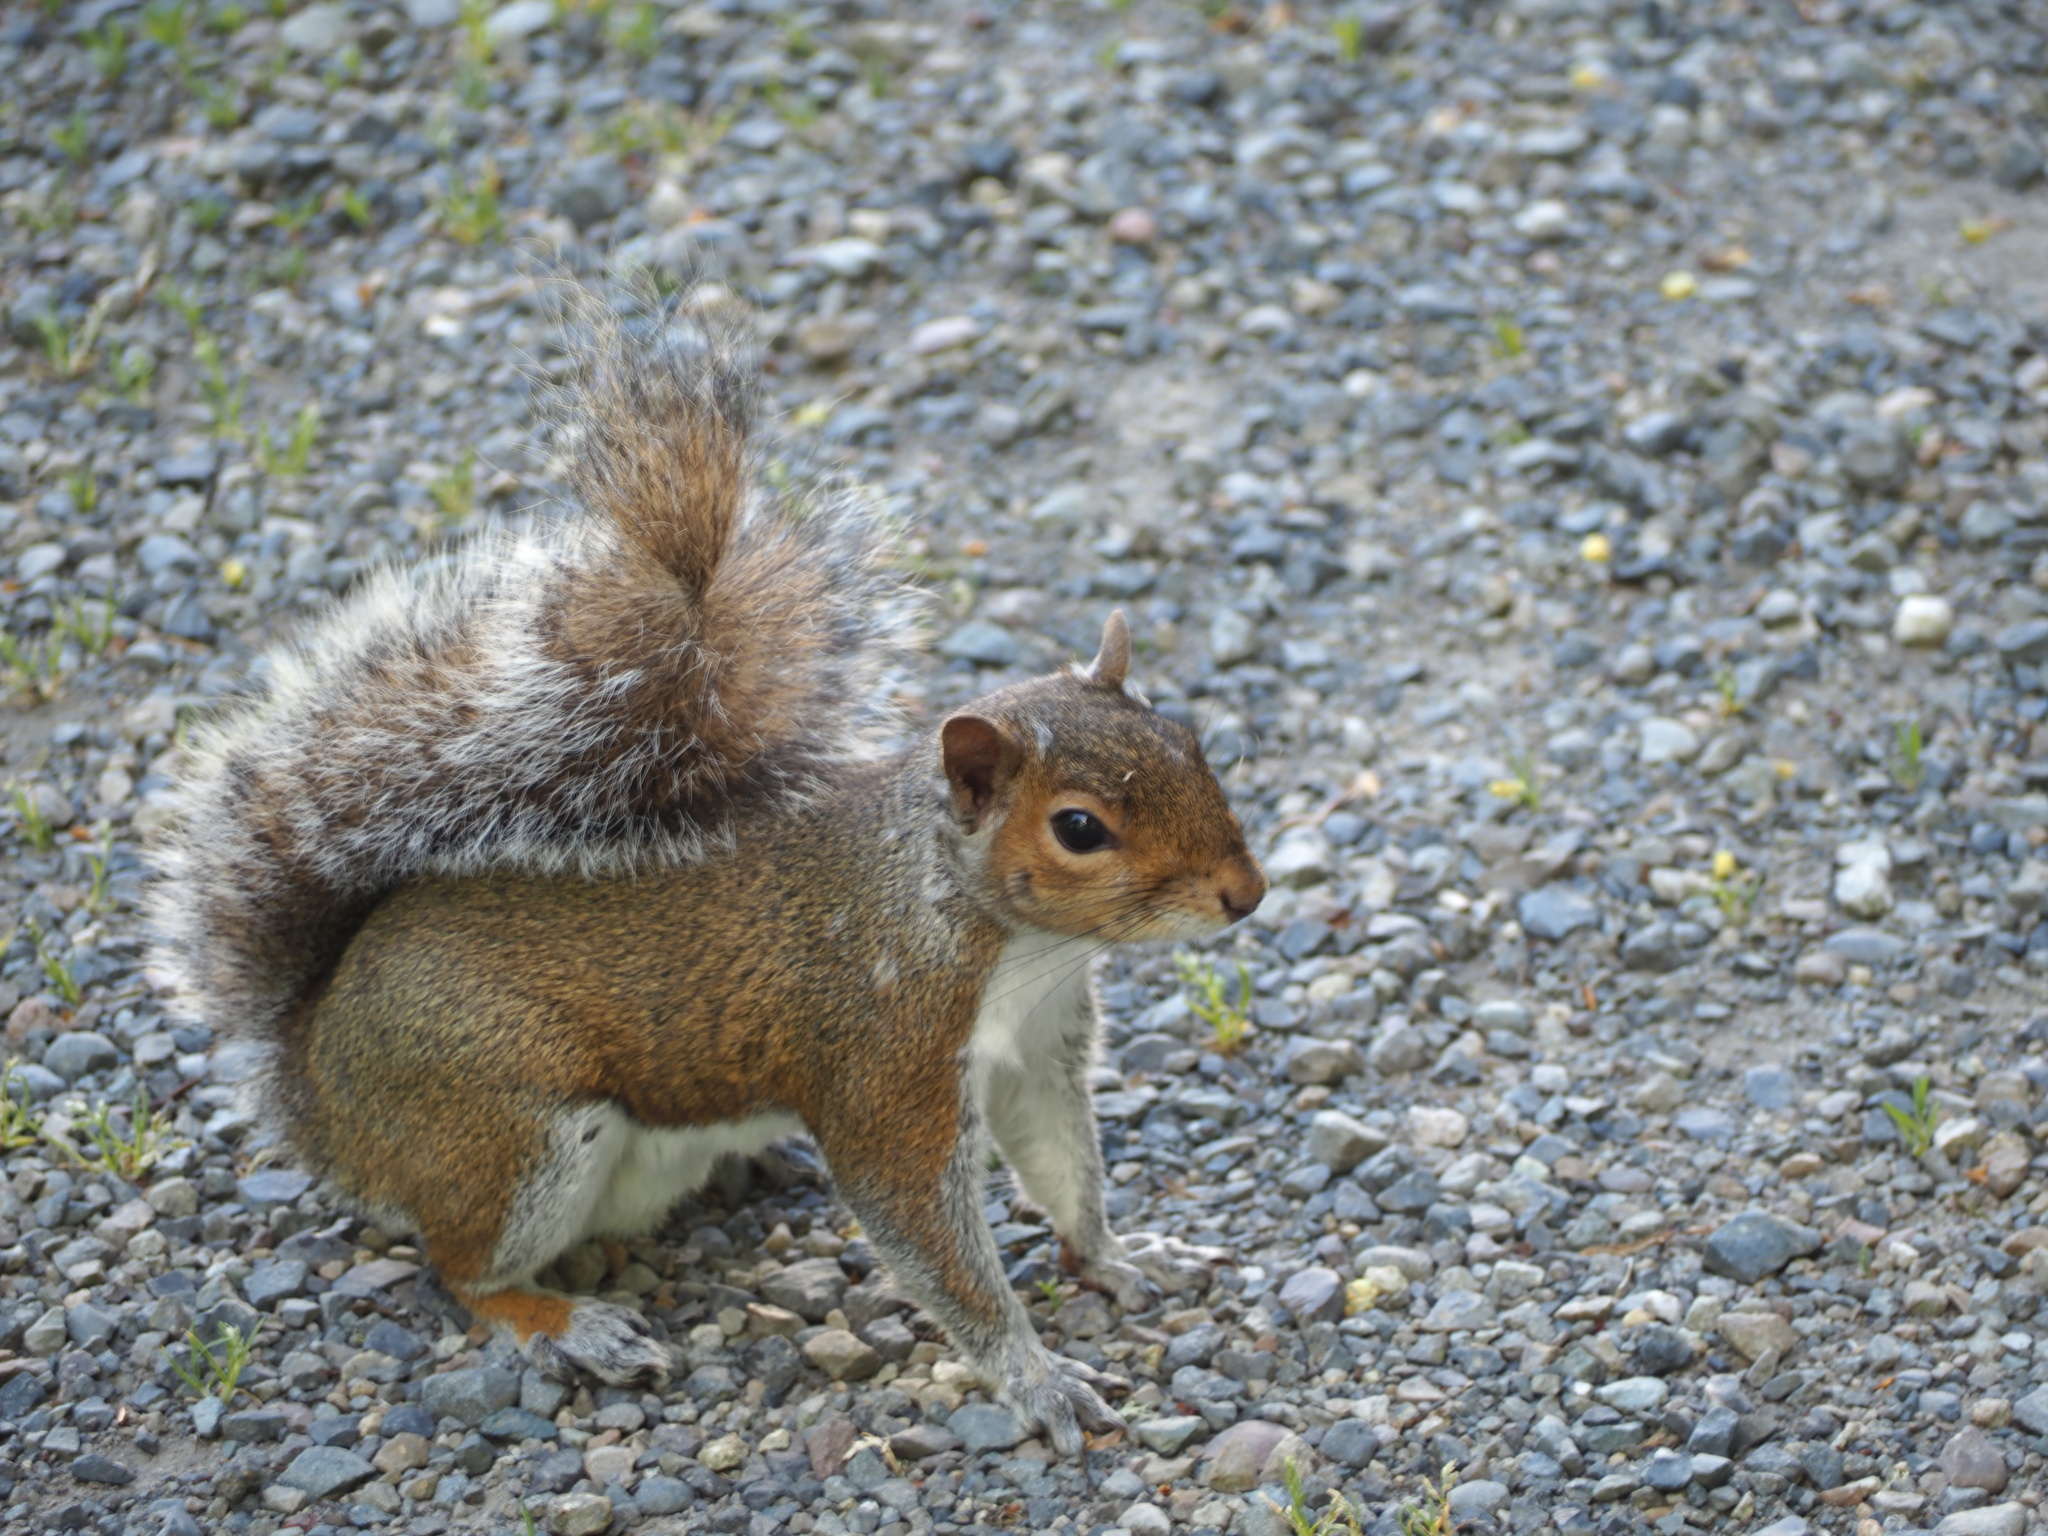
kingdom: Animalia
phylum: Chordata
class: Mammalia
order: Rodentia
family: Sciuridae
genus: Sciurus
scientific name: Sciurus carolinensis
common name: Eastern gray squirrel
